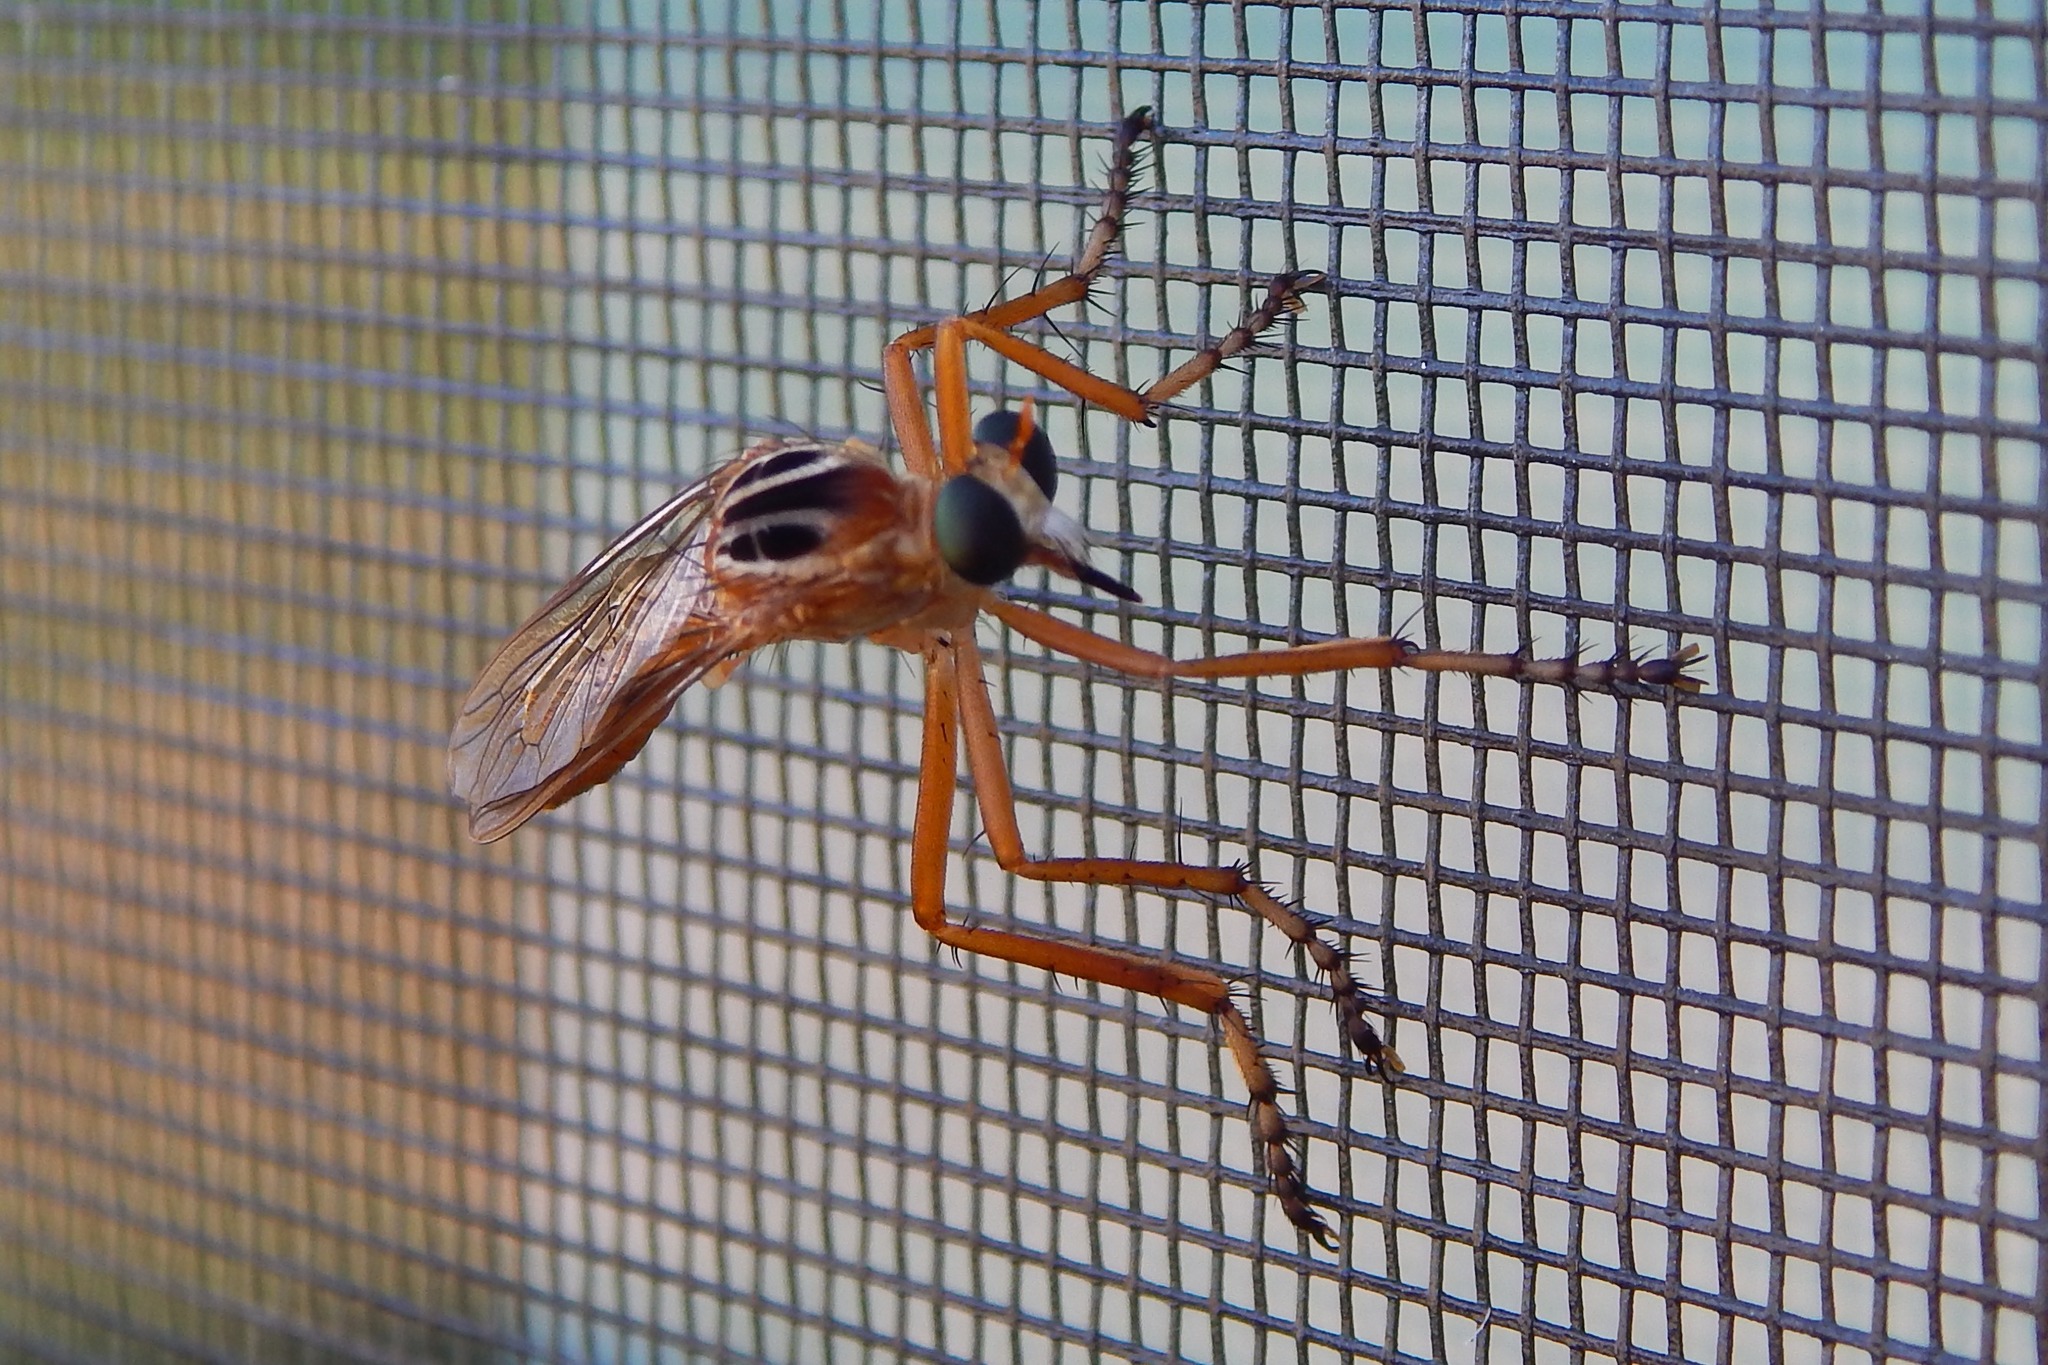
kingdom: Animalia
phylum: Arthropoda
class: Insecta
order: Diptera
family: Asilidae
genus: Diogmites
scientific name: Diogmites neoternatus
